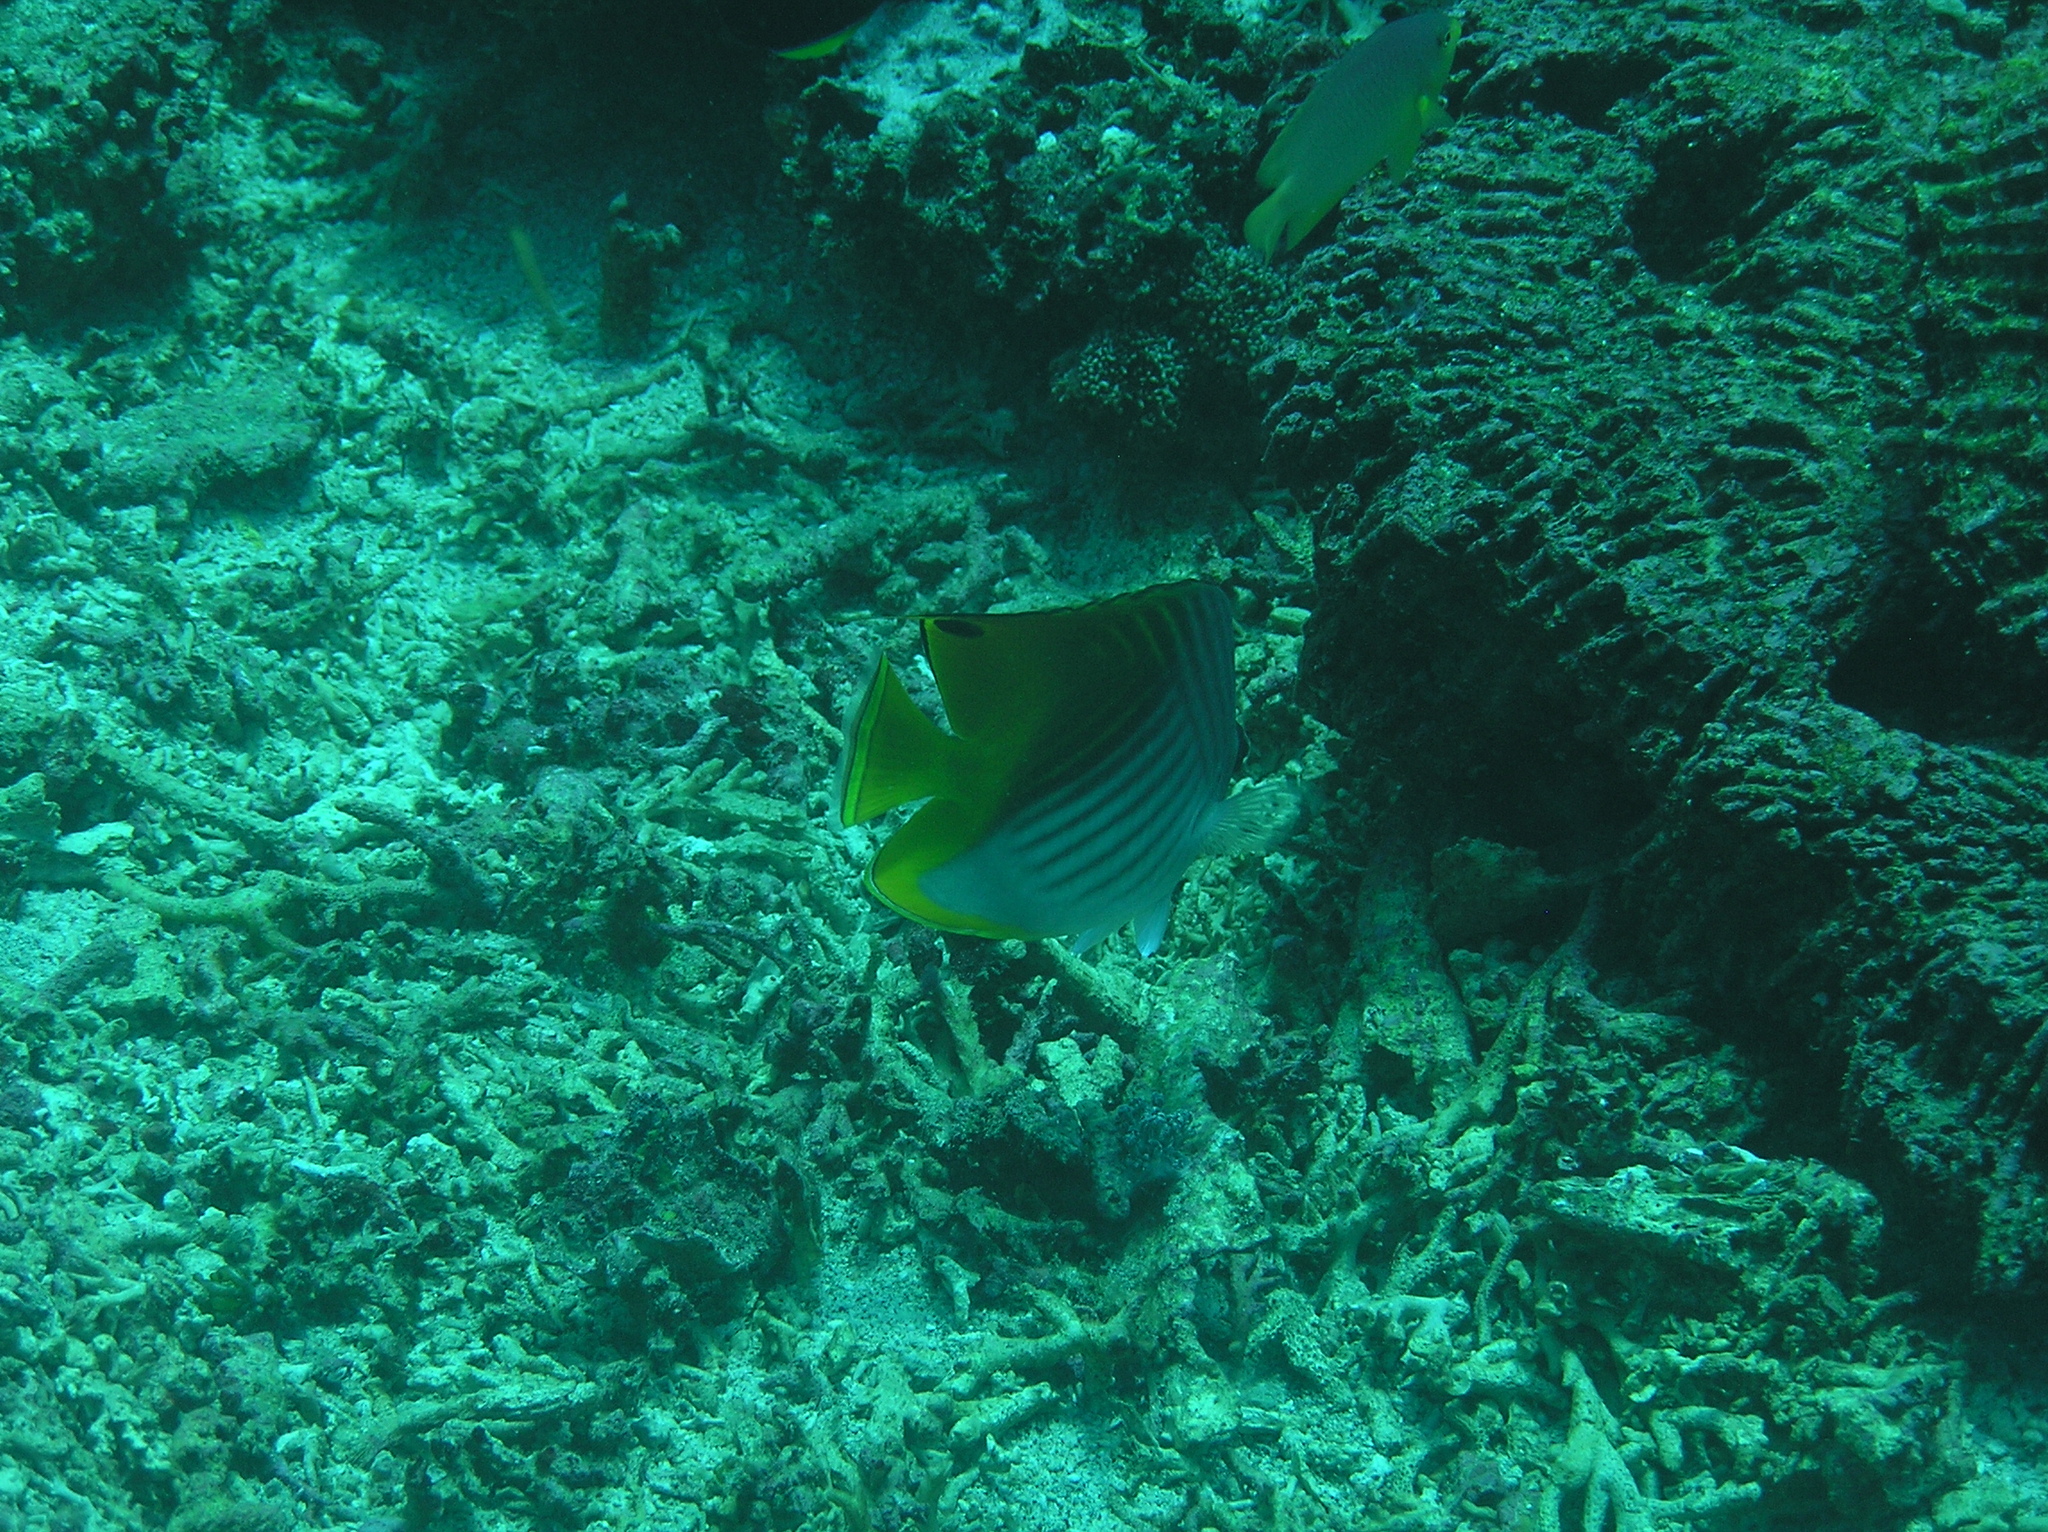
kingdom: Animalia
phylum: Chordata
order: Perciformes
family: Chaetodontidae
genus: Chaetodon
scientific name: Chaetodon auriga
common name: Threadfin butterflyfish
